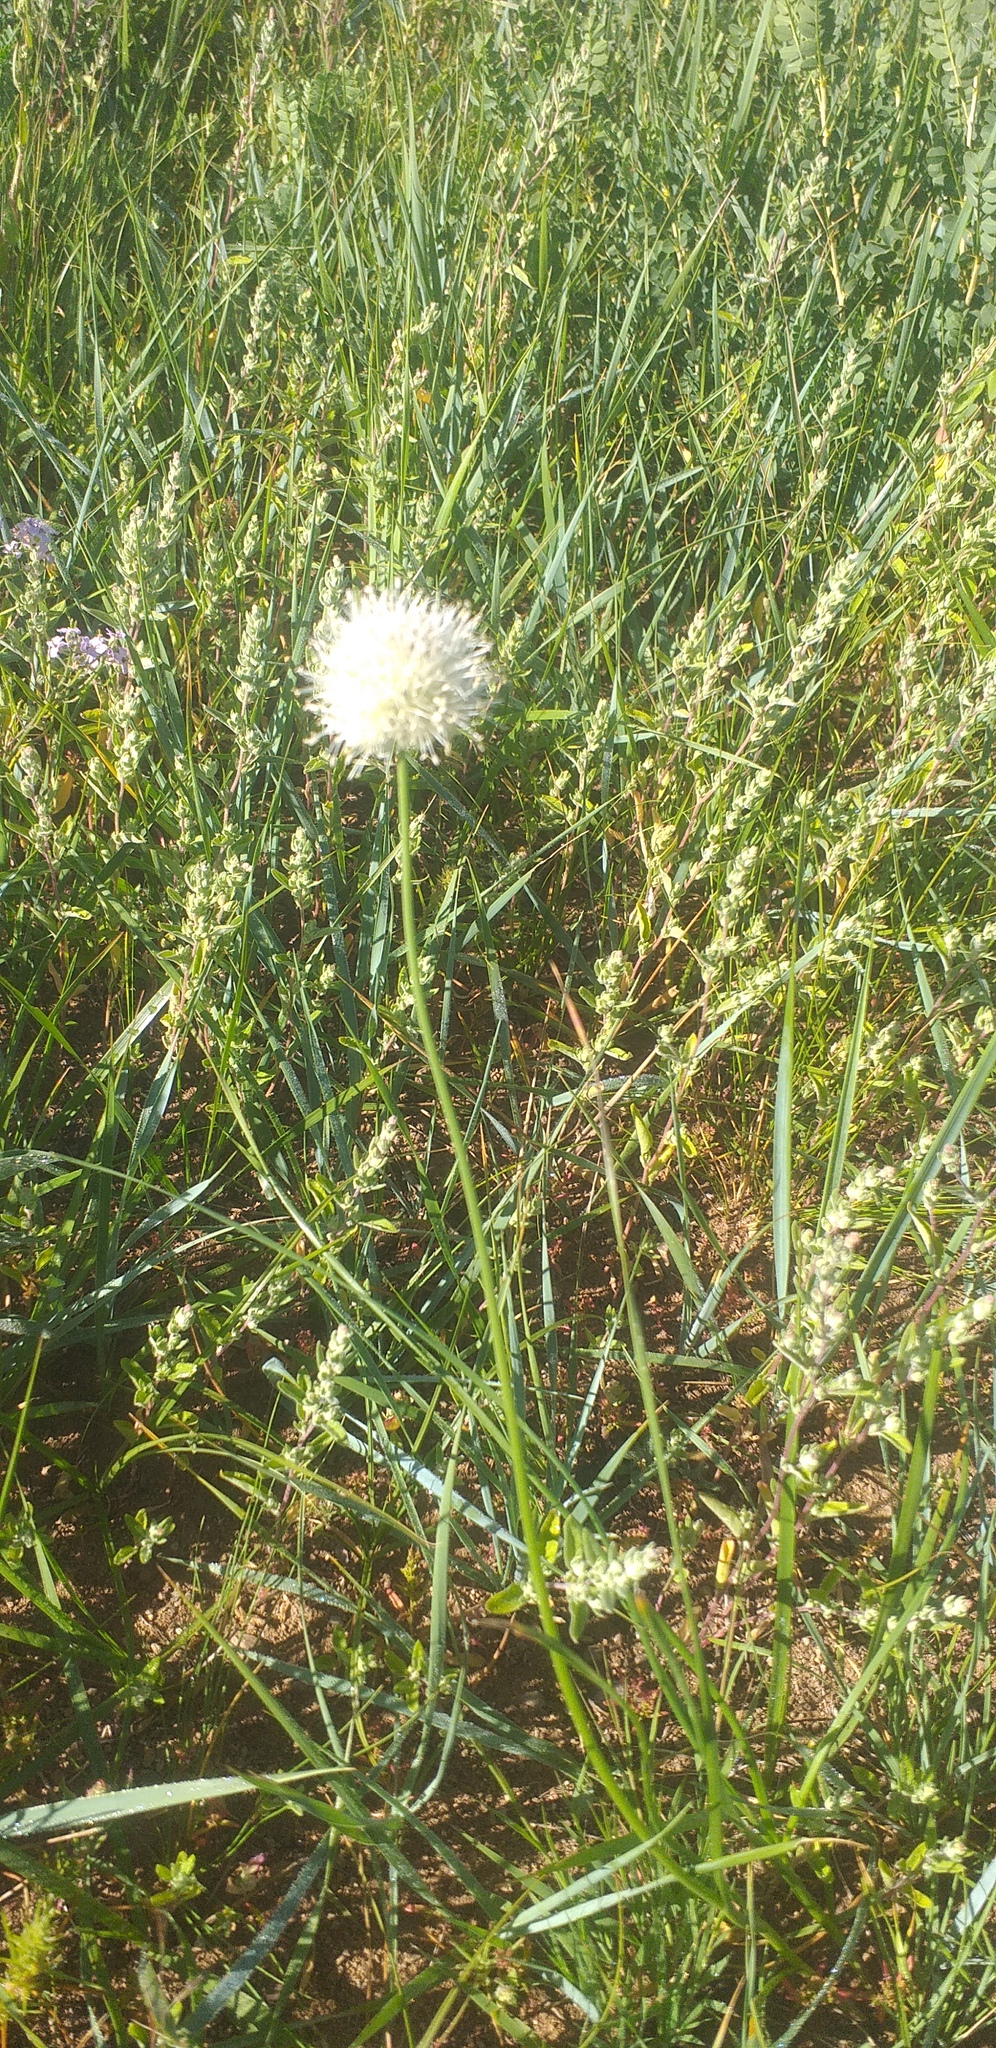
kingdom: Plantae
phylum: Tracheophyta
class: Liliopsida
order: Asparagales
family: Amaryllidaceae
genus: Allium
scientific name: Allium leucocephalum
